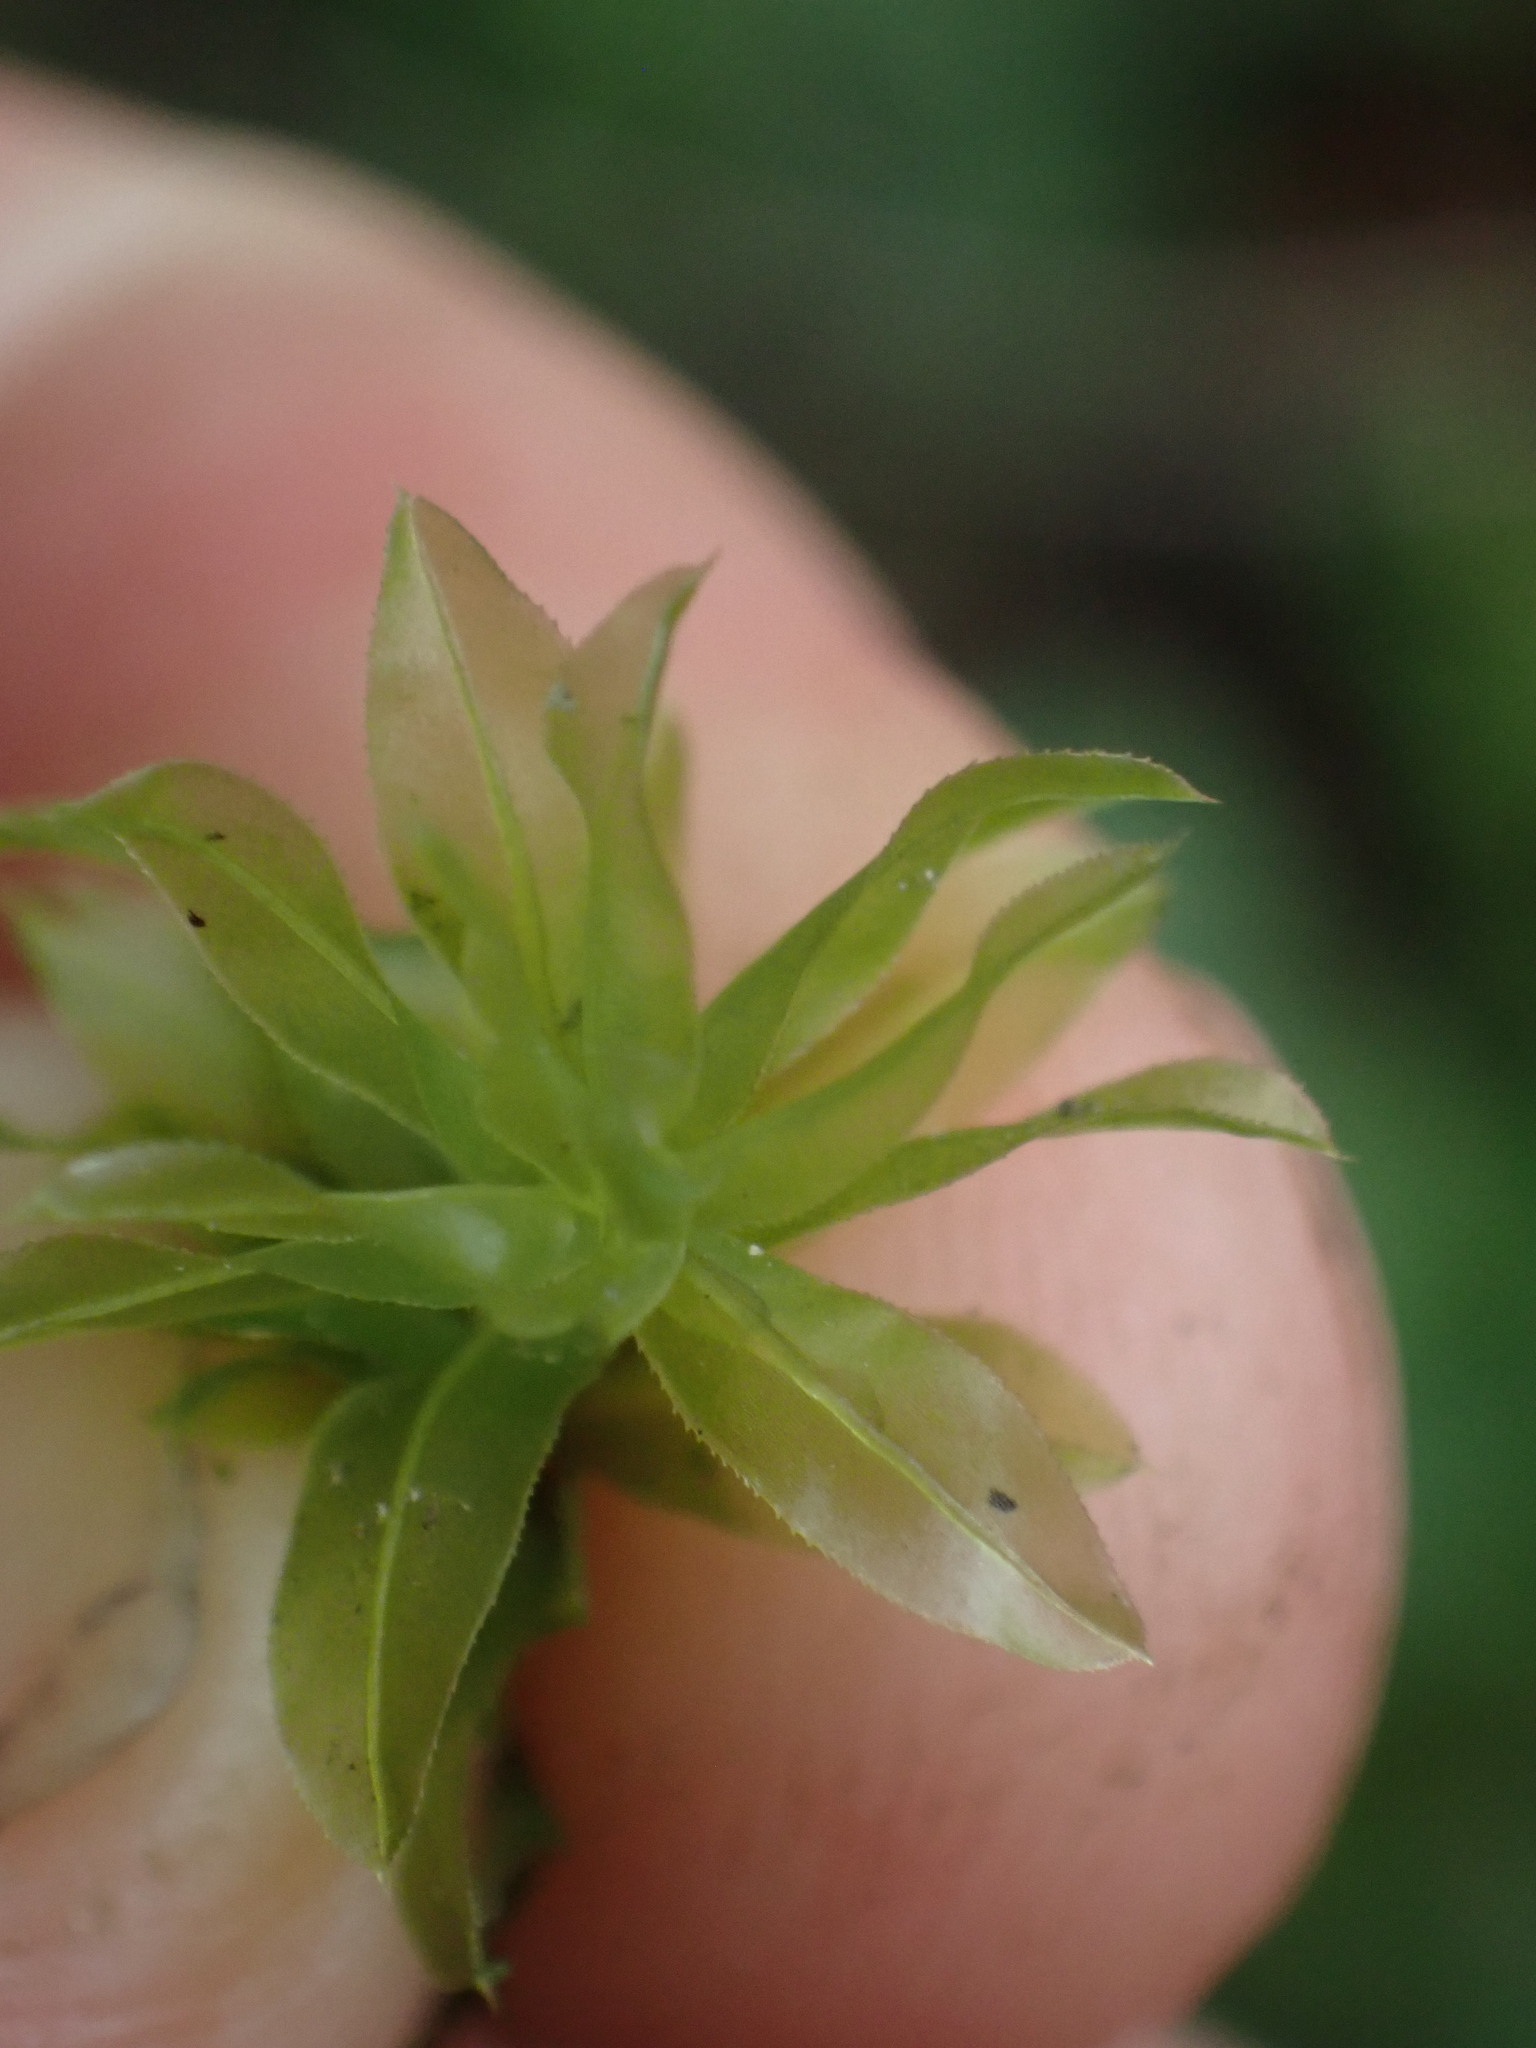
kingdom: Plantae
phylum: Bryophyta
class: Bryopsida
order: Bryales
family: Mniaceae
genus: Plagiomnium
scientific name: Plagiomnium insigne
